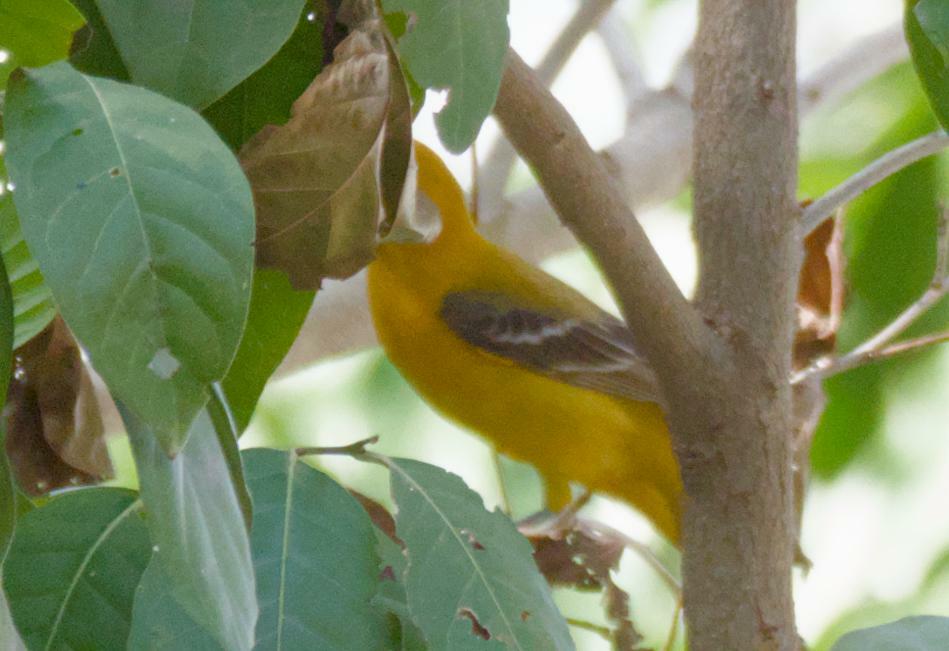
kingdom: Animalia
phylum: Chordata
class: Aves
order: Passeriformes
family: Icteridae
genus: Icterus
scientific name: Icterus auratus
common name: Orange oriole
